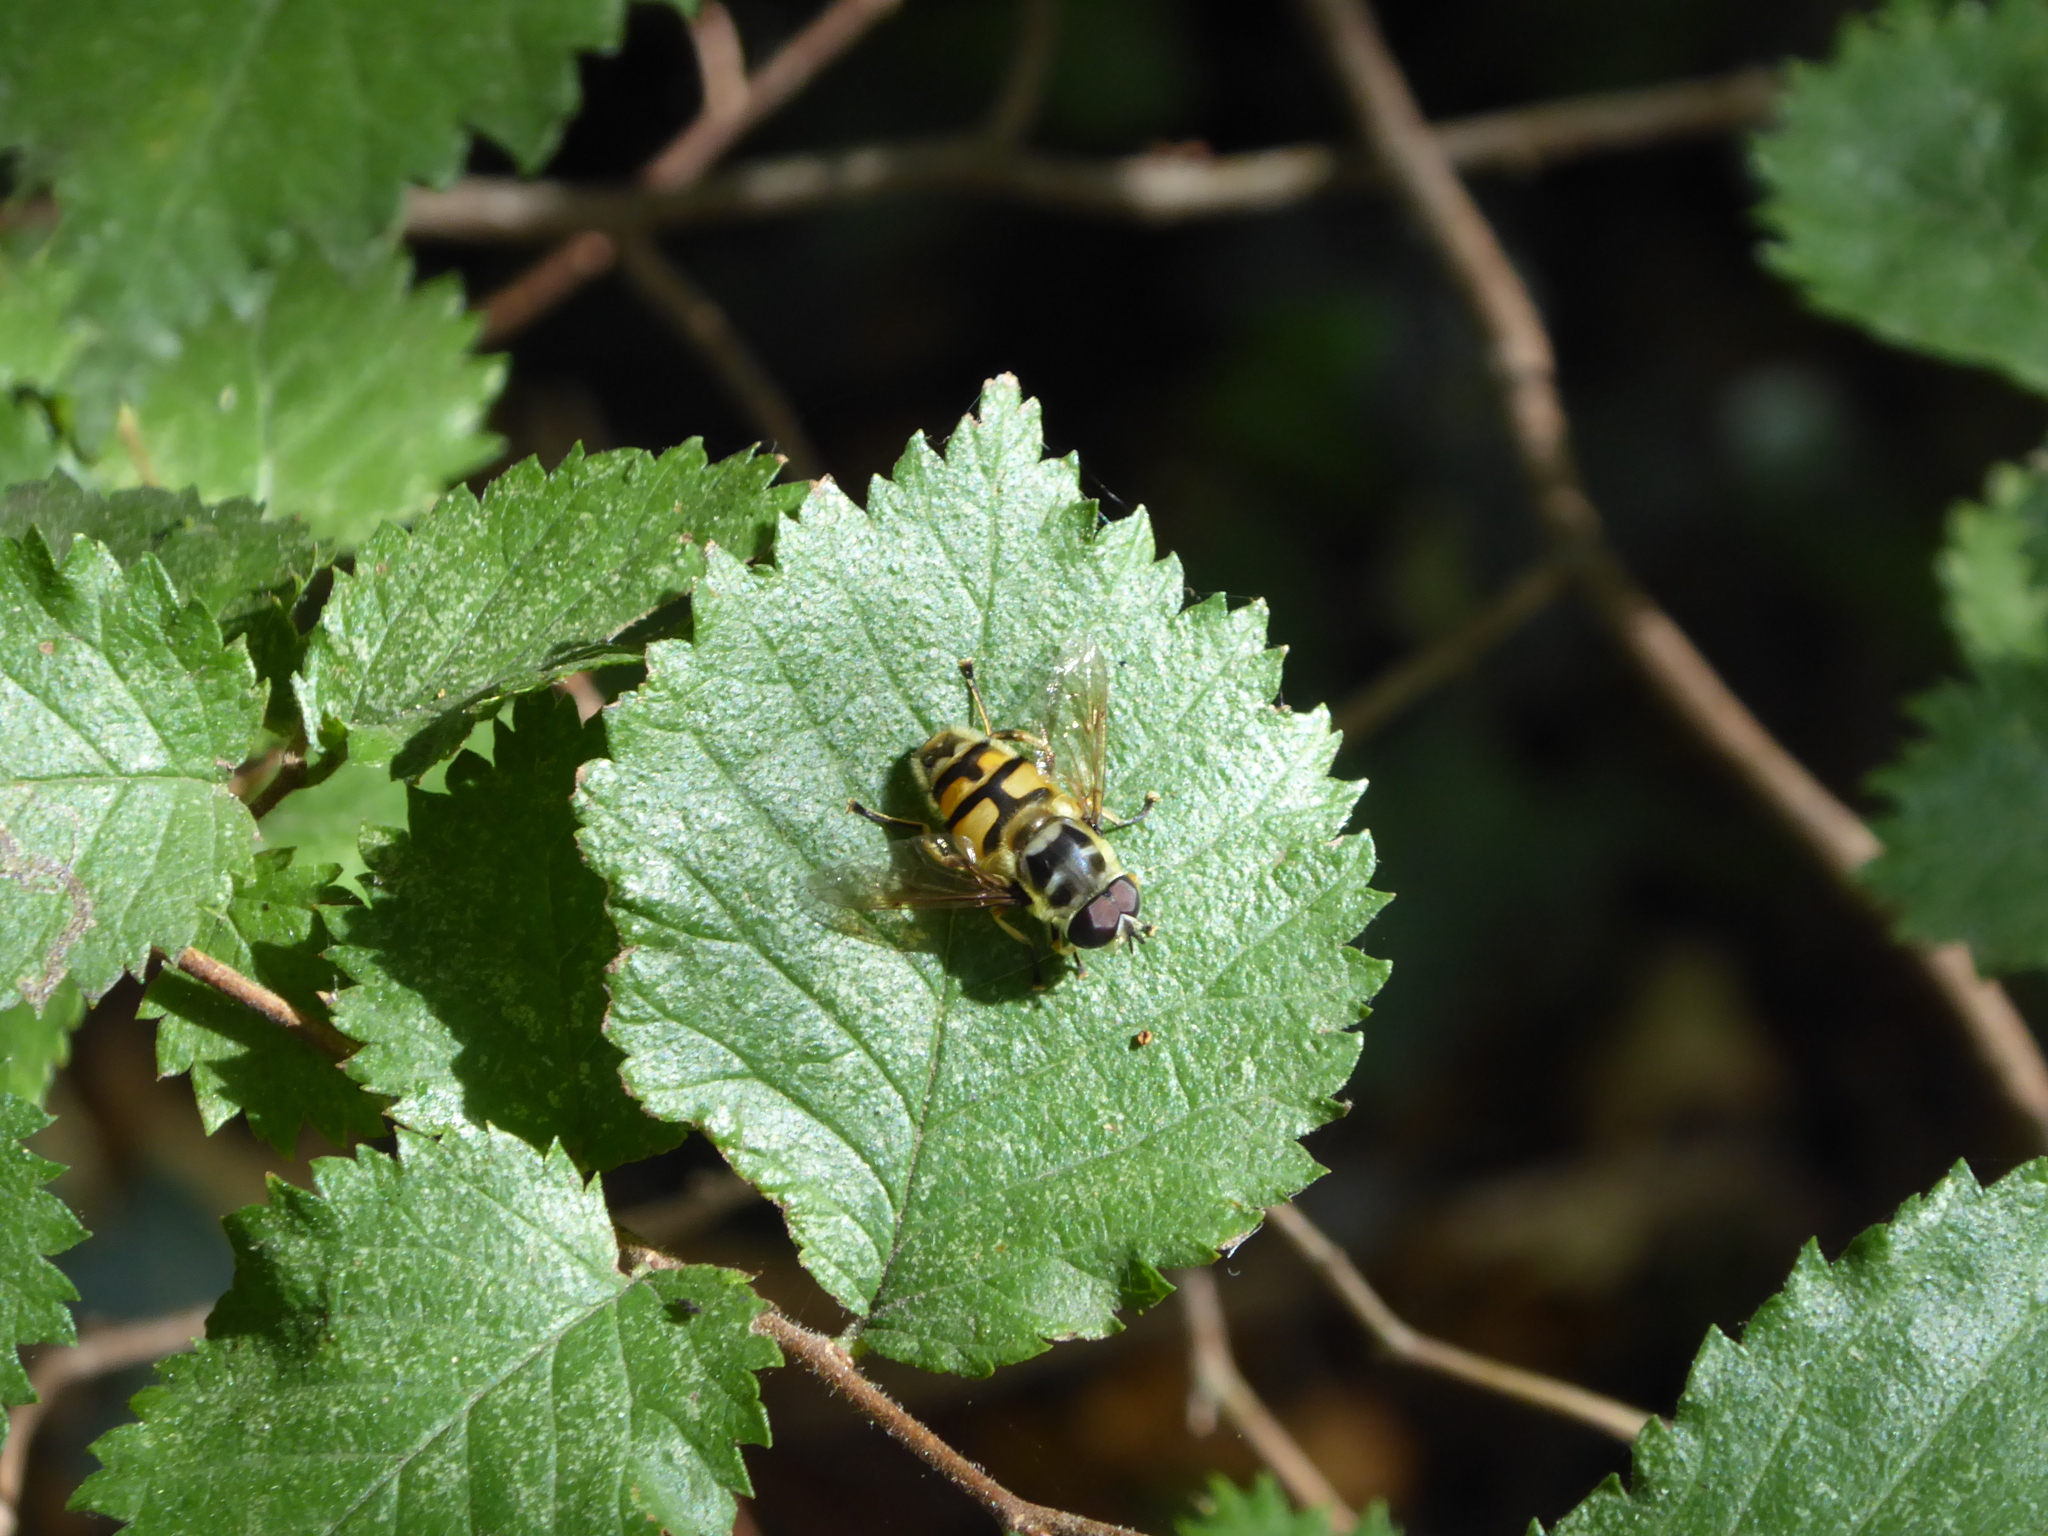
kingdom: Animalia
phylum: Arthropoda
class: Insecta
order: Diptera
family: Syrphidae
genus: Myathropa
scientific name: Myathropa florea
